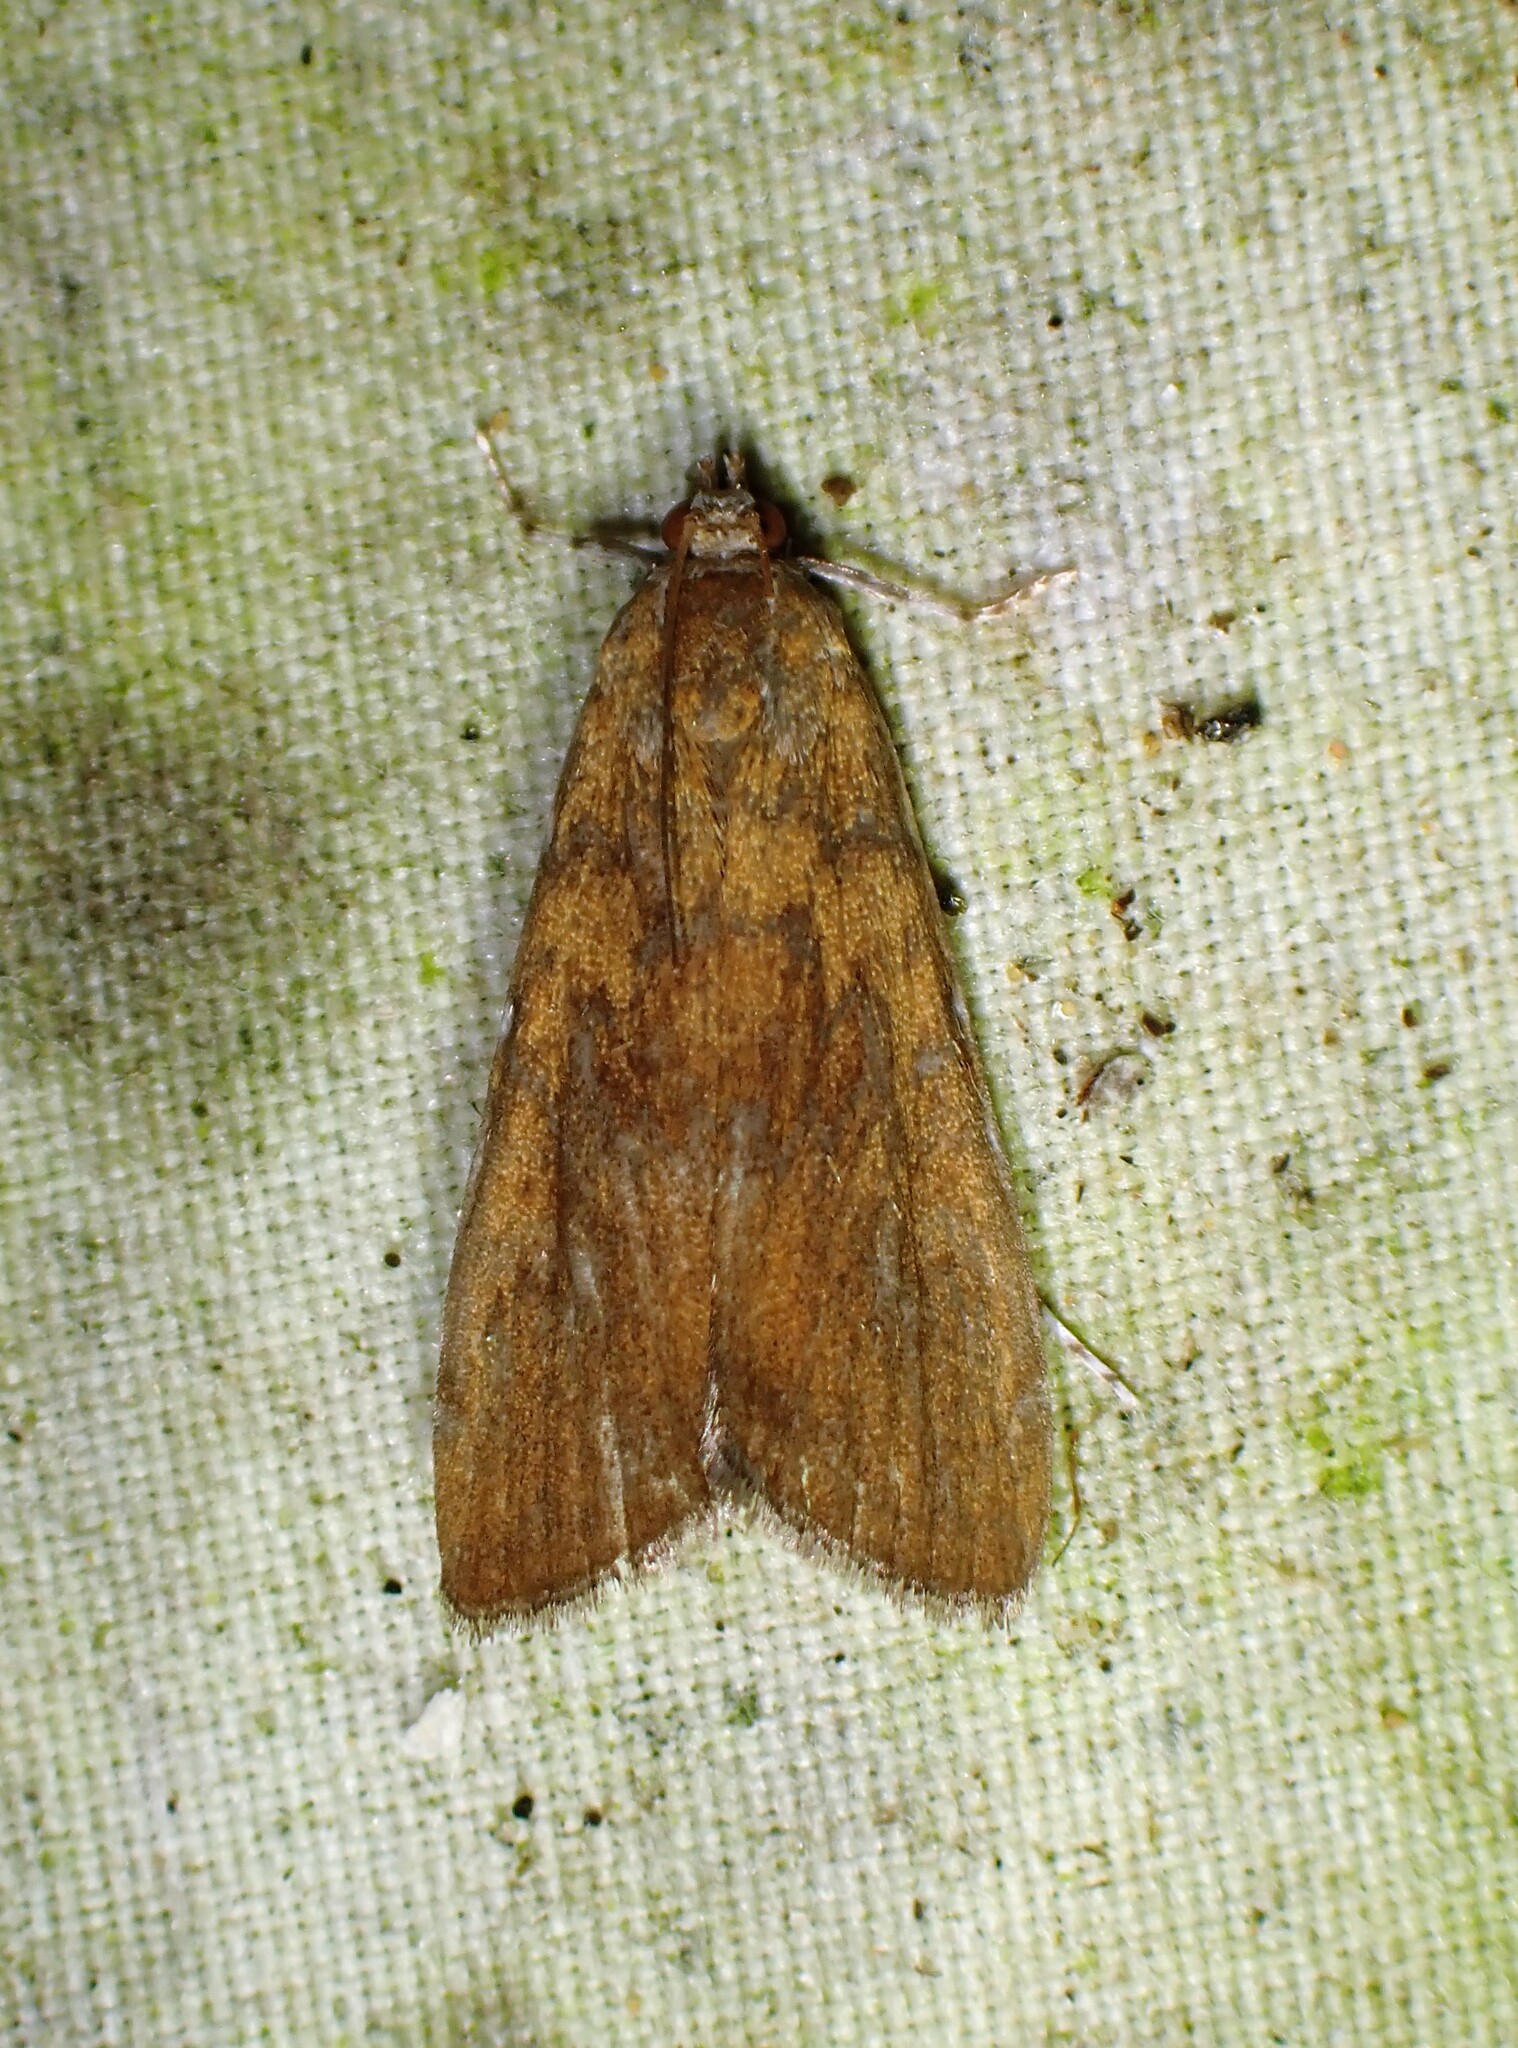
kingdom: Animalia
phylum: Arthropoda
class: Insecta
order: Lepidoptera
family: Crambidae
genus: Elophila
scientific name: Elophila gyralis
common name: Waterlily borer moth
